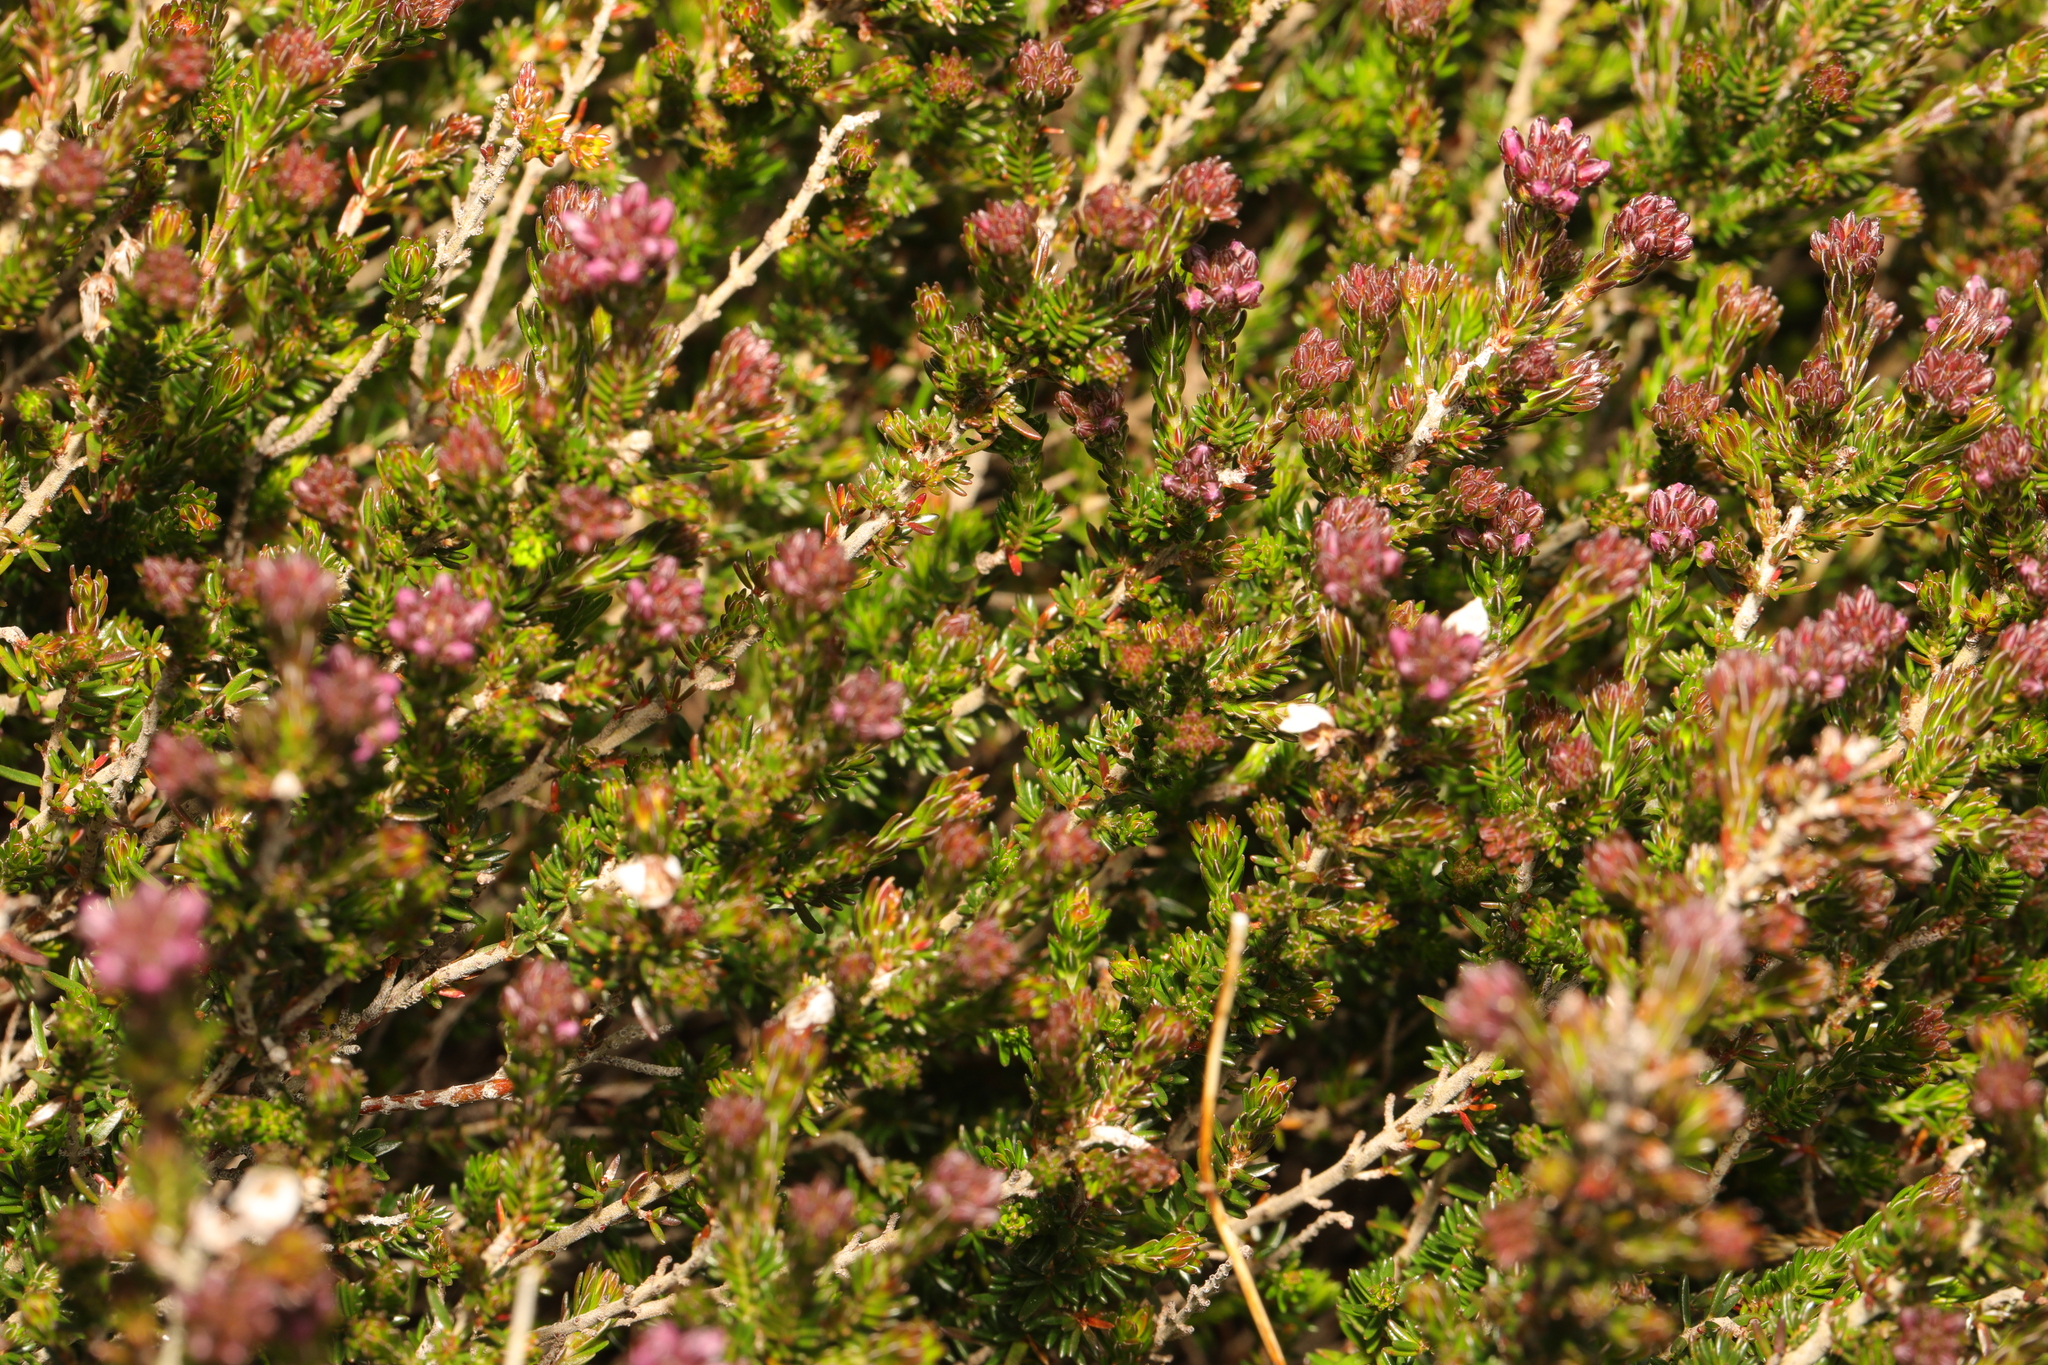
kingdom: Plantae
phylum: Tracheophyta
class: Magnoliopsida
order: Ericales
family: Ericaceae
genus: Erica
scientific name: Erica cinerea
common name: Bell heather
